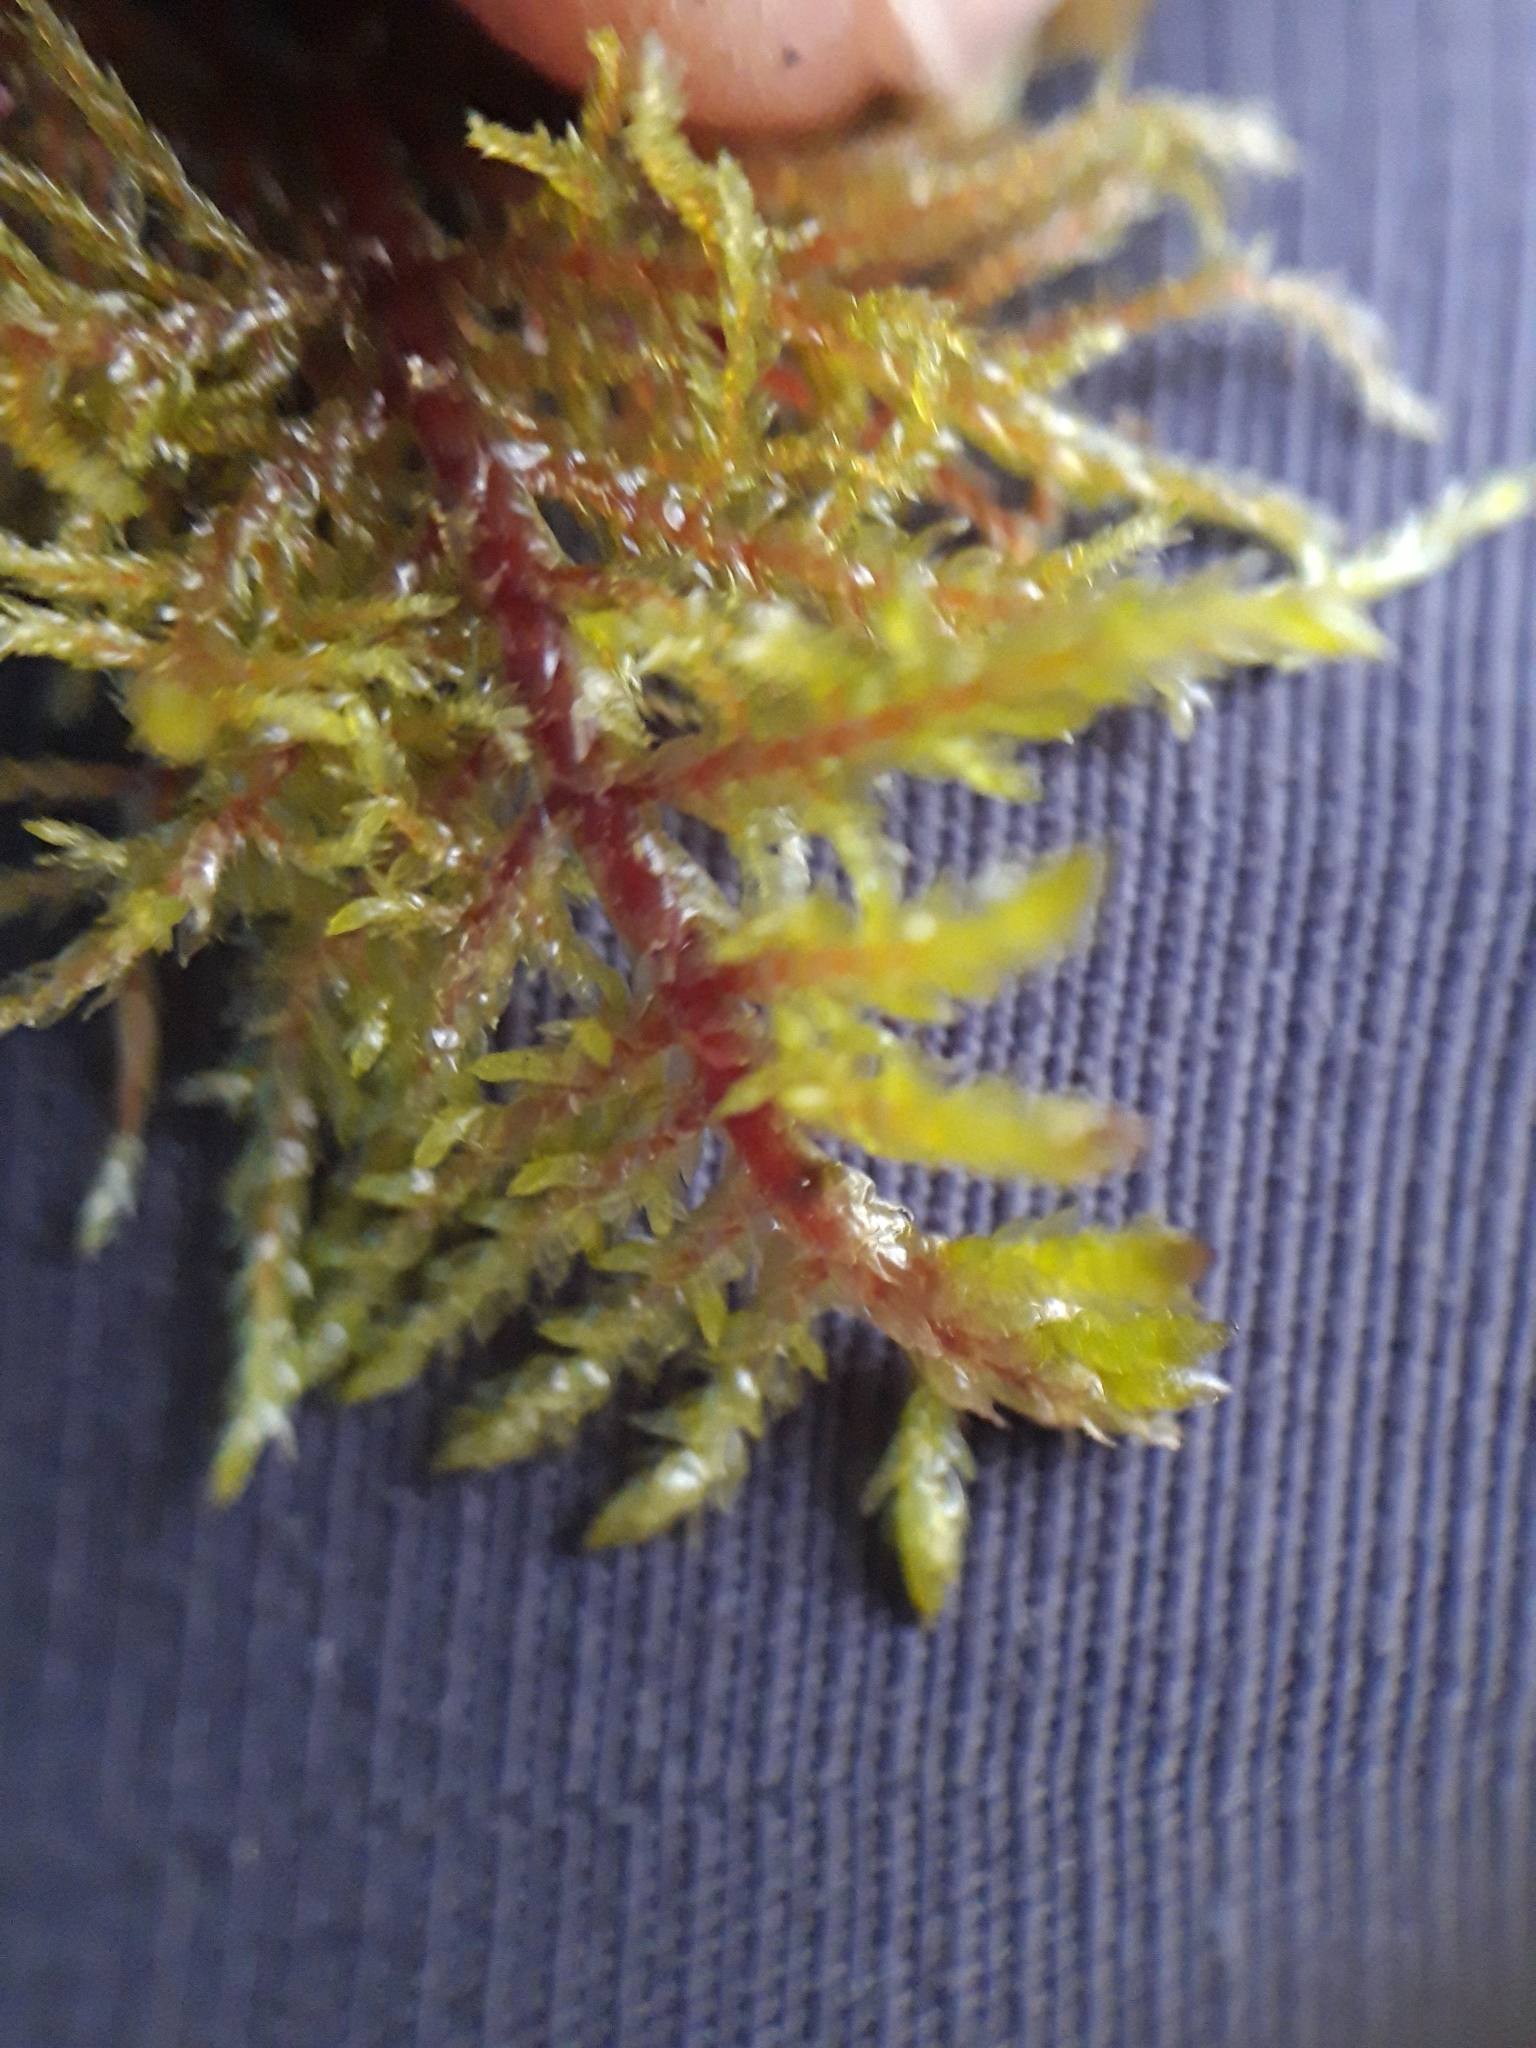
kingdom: Plantae
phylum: Bryophyta
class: Bryopsida
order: Hypnales
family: Hylocomiaceae
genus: Hylocomium
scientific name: Hylocomium splendens
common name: Stairstep moss
